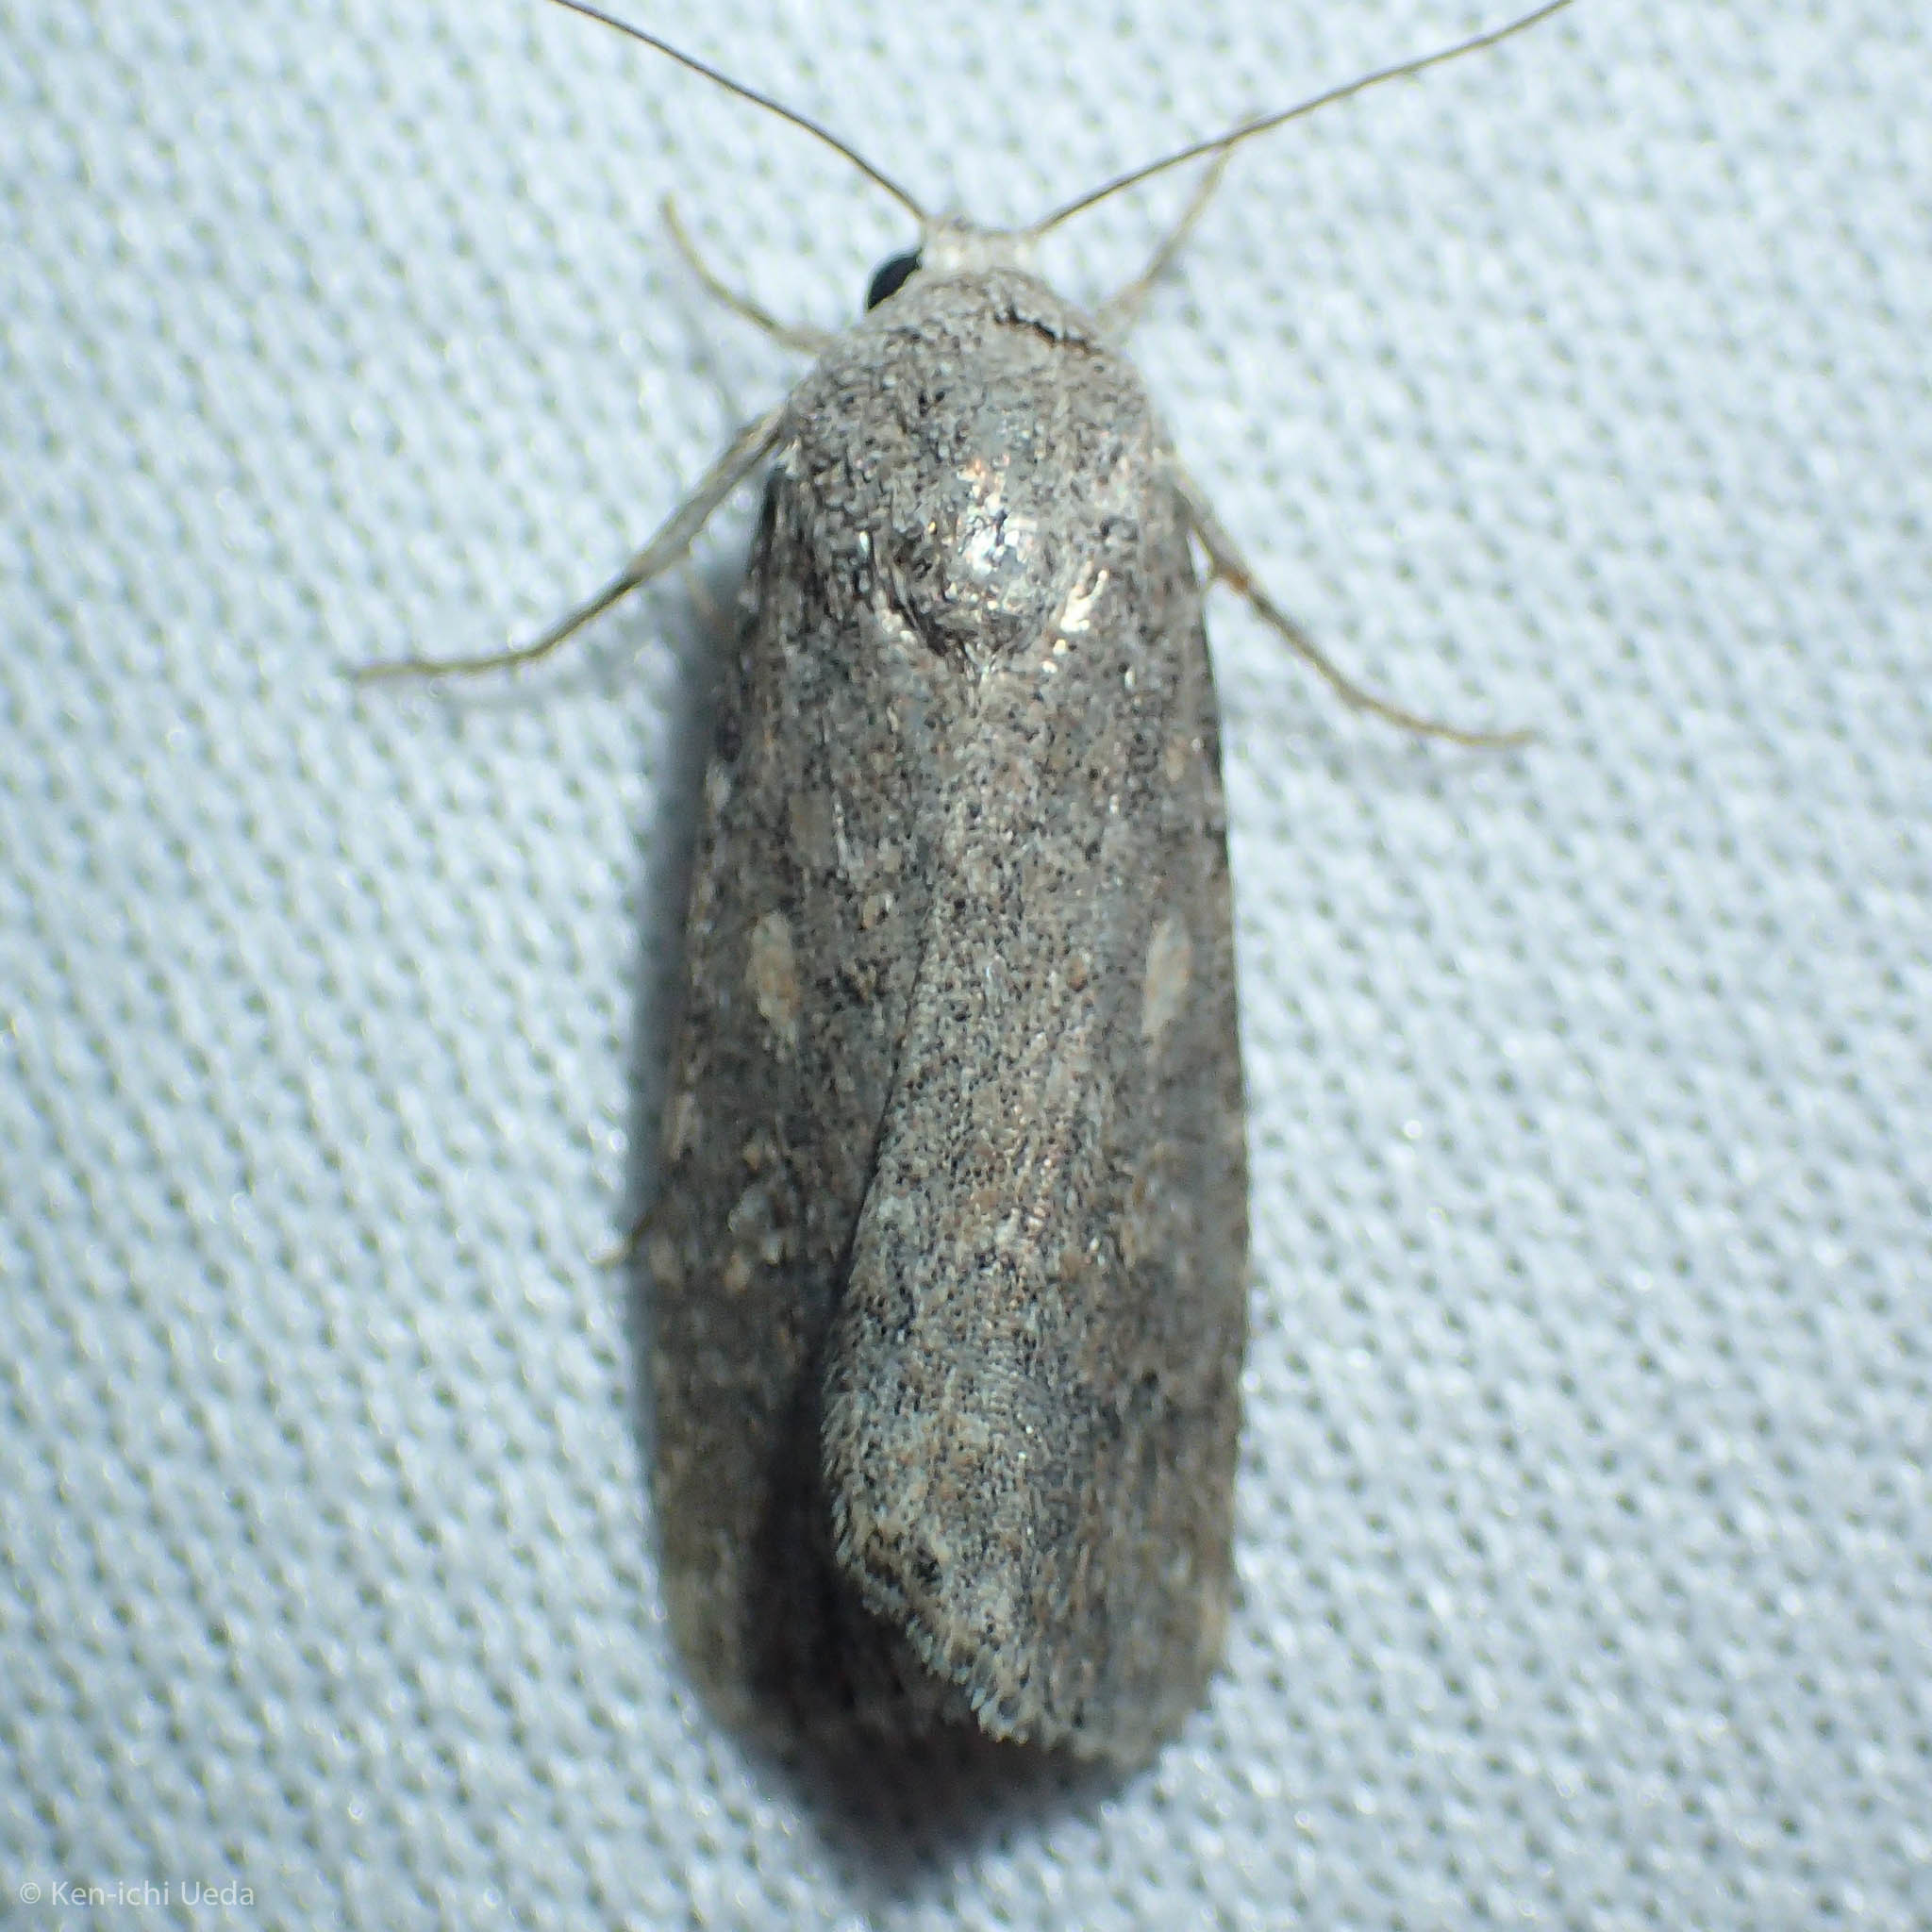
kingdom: Animalia
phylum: Arthropoda
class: Insecta
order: Lepidoptera
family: Noctuidae
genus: Spodoptera
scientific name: Spodoptera exigua
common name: Beet armyworm
